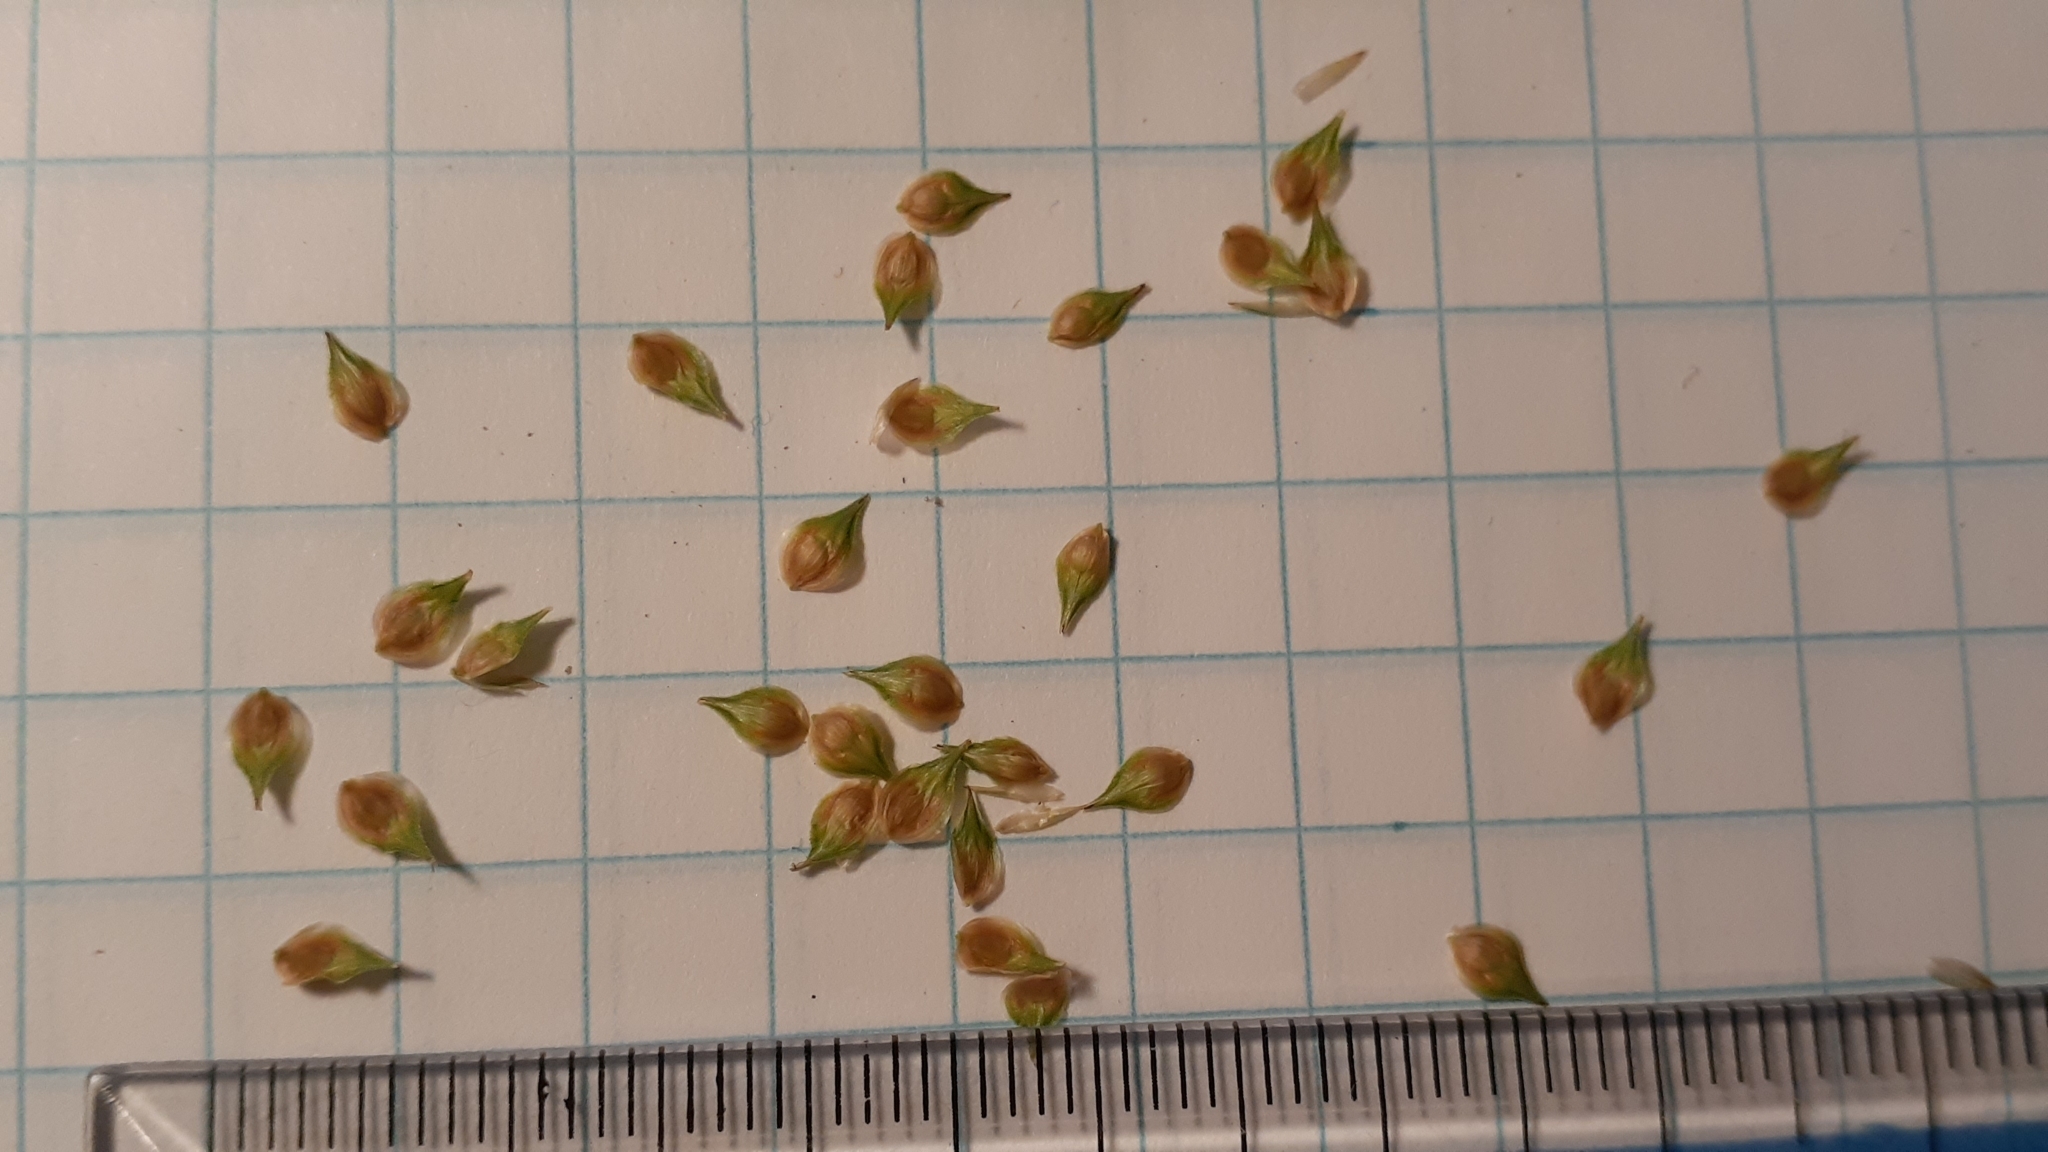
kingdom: Plantae
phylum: Tracheophyta
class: Liliopsida
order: Poales
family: Cyperaceae
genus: Carex
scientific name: Carex molesta
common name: Troublesome sedge
